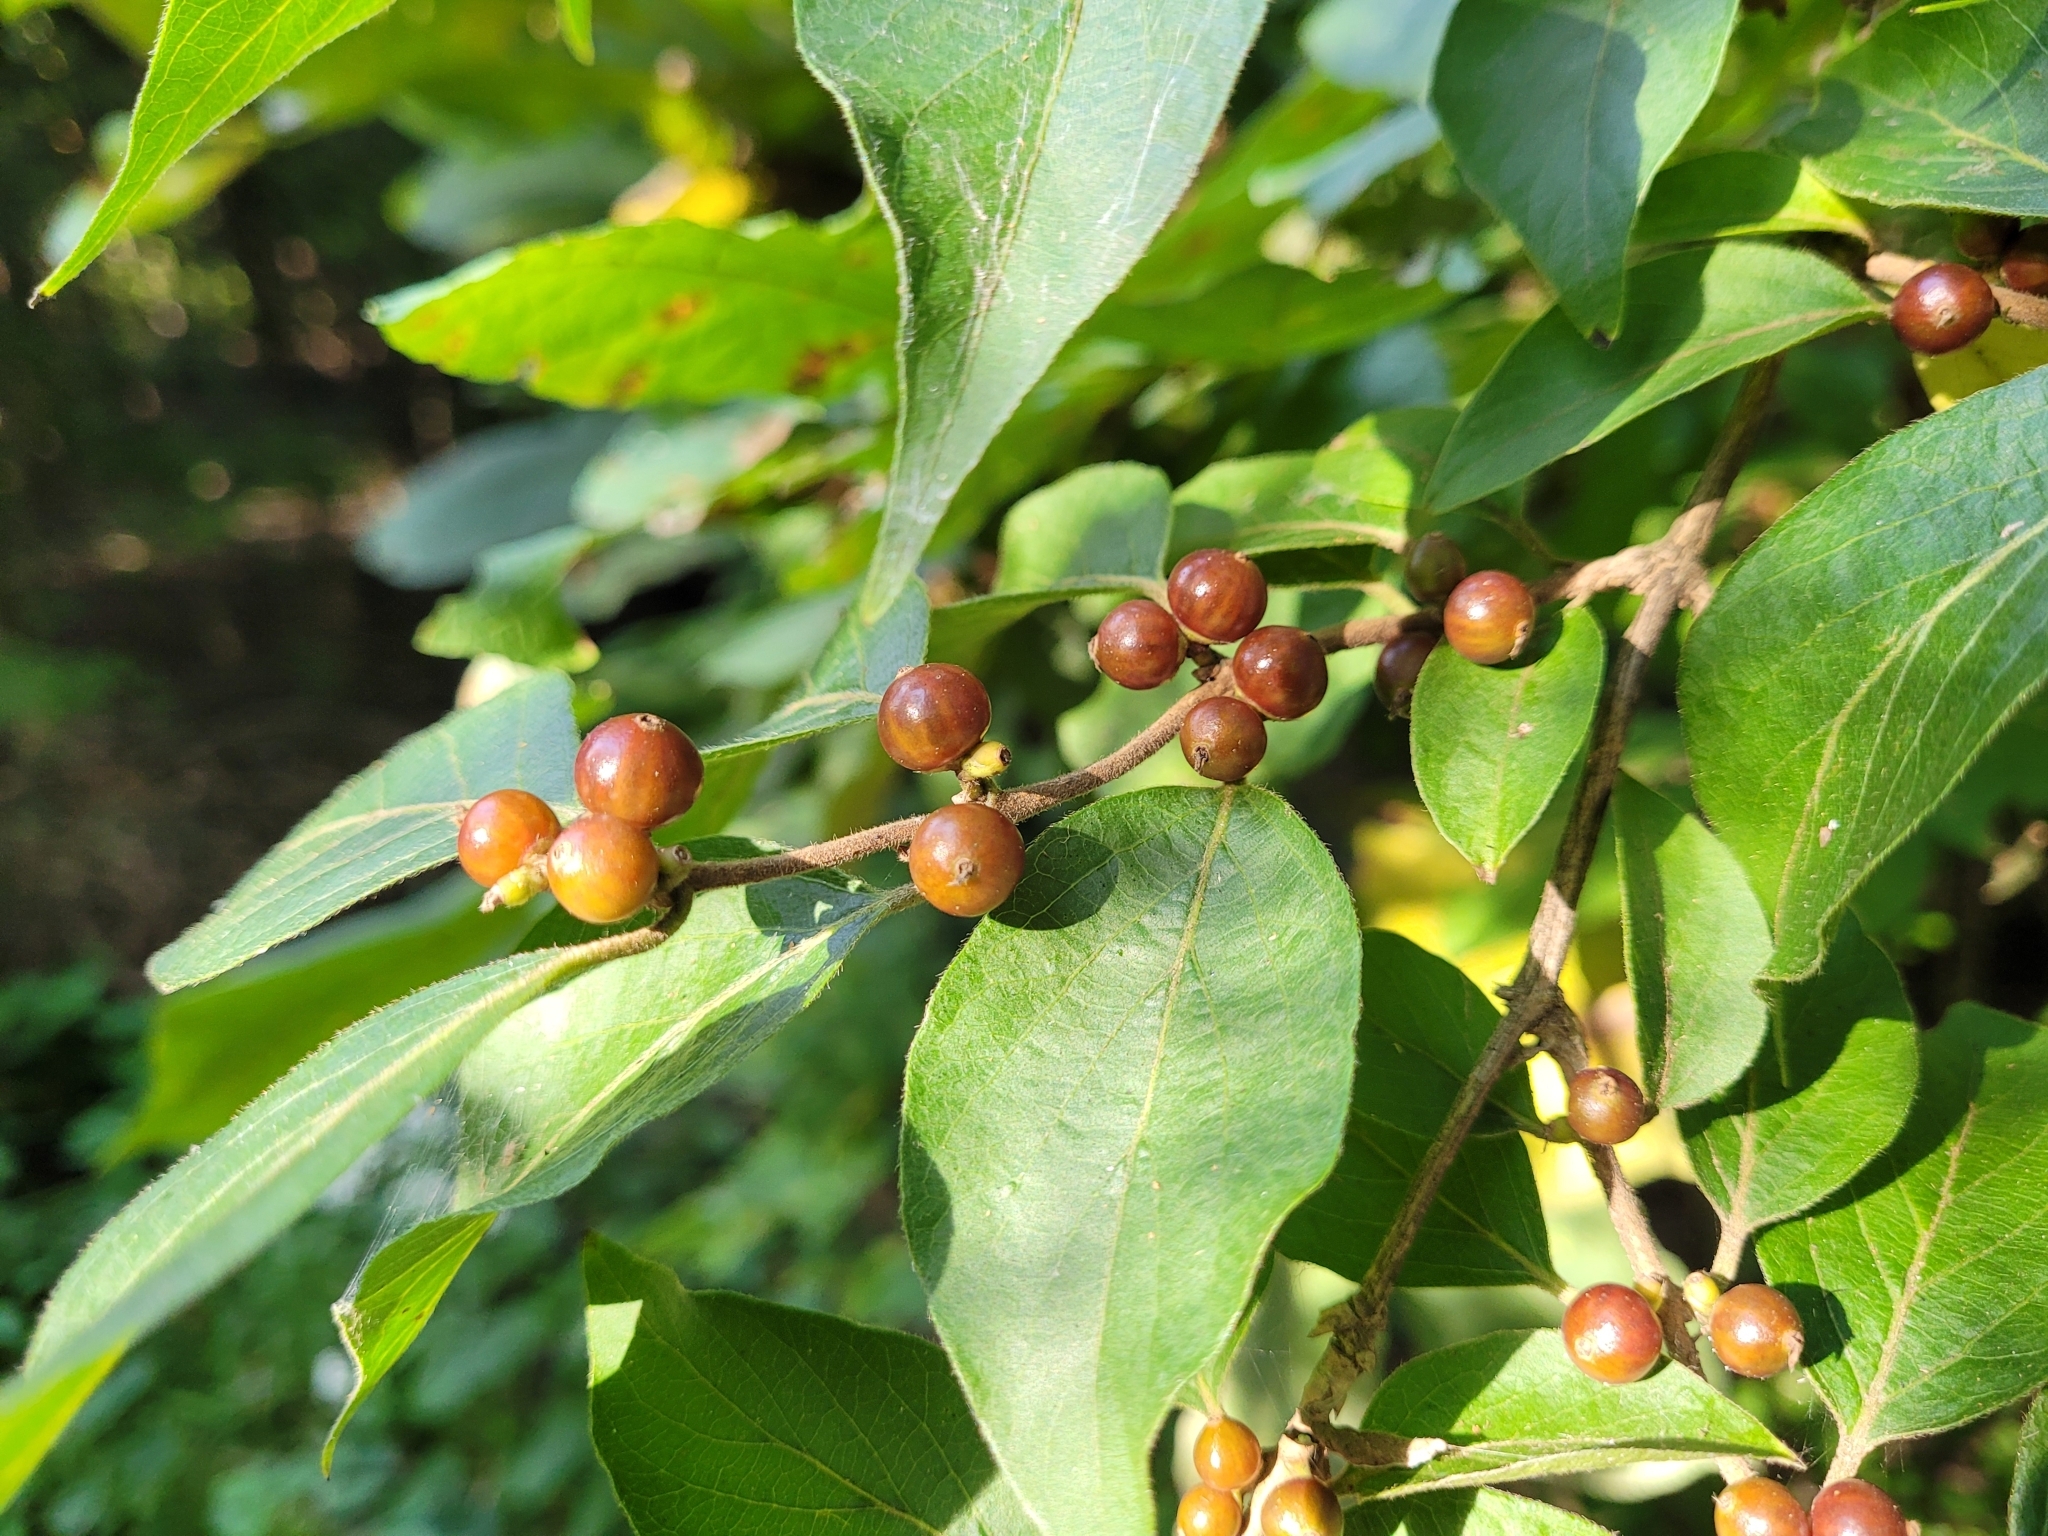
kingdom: Plantae
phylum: Tracheophyta
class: Magnoliopsida
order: Dipsacales
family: Caprifoliaceae
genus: Lonicera
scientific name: Lonicera maackii
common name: Amur honeysuckle
